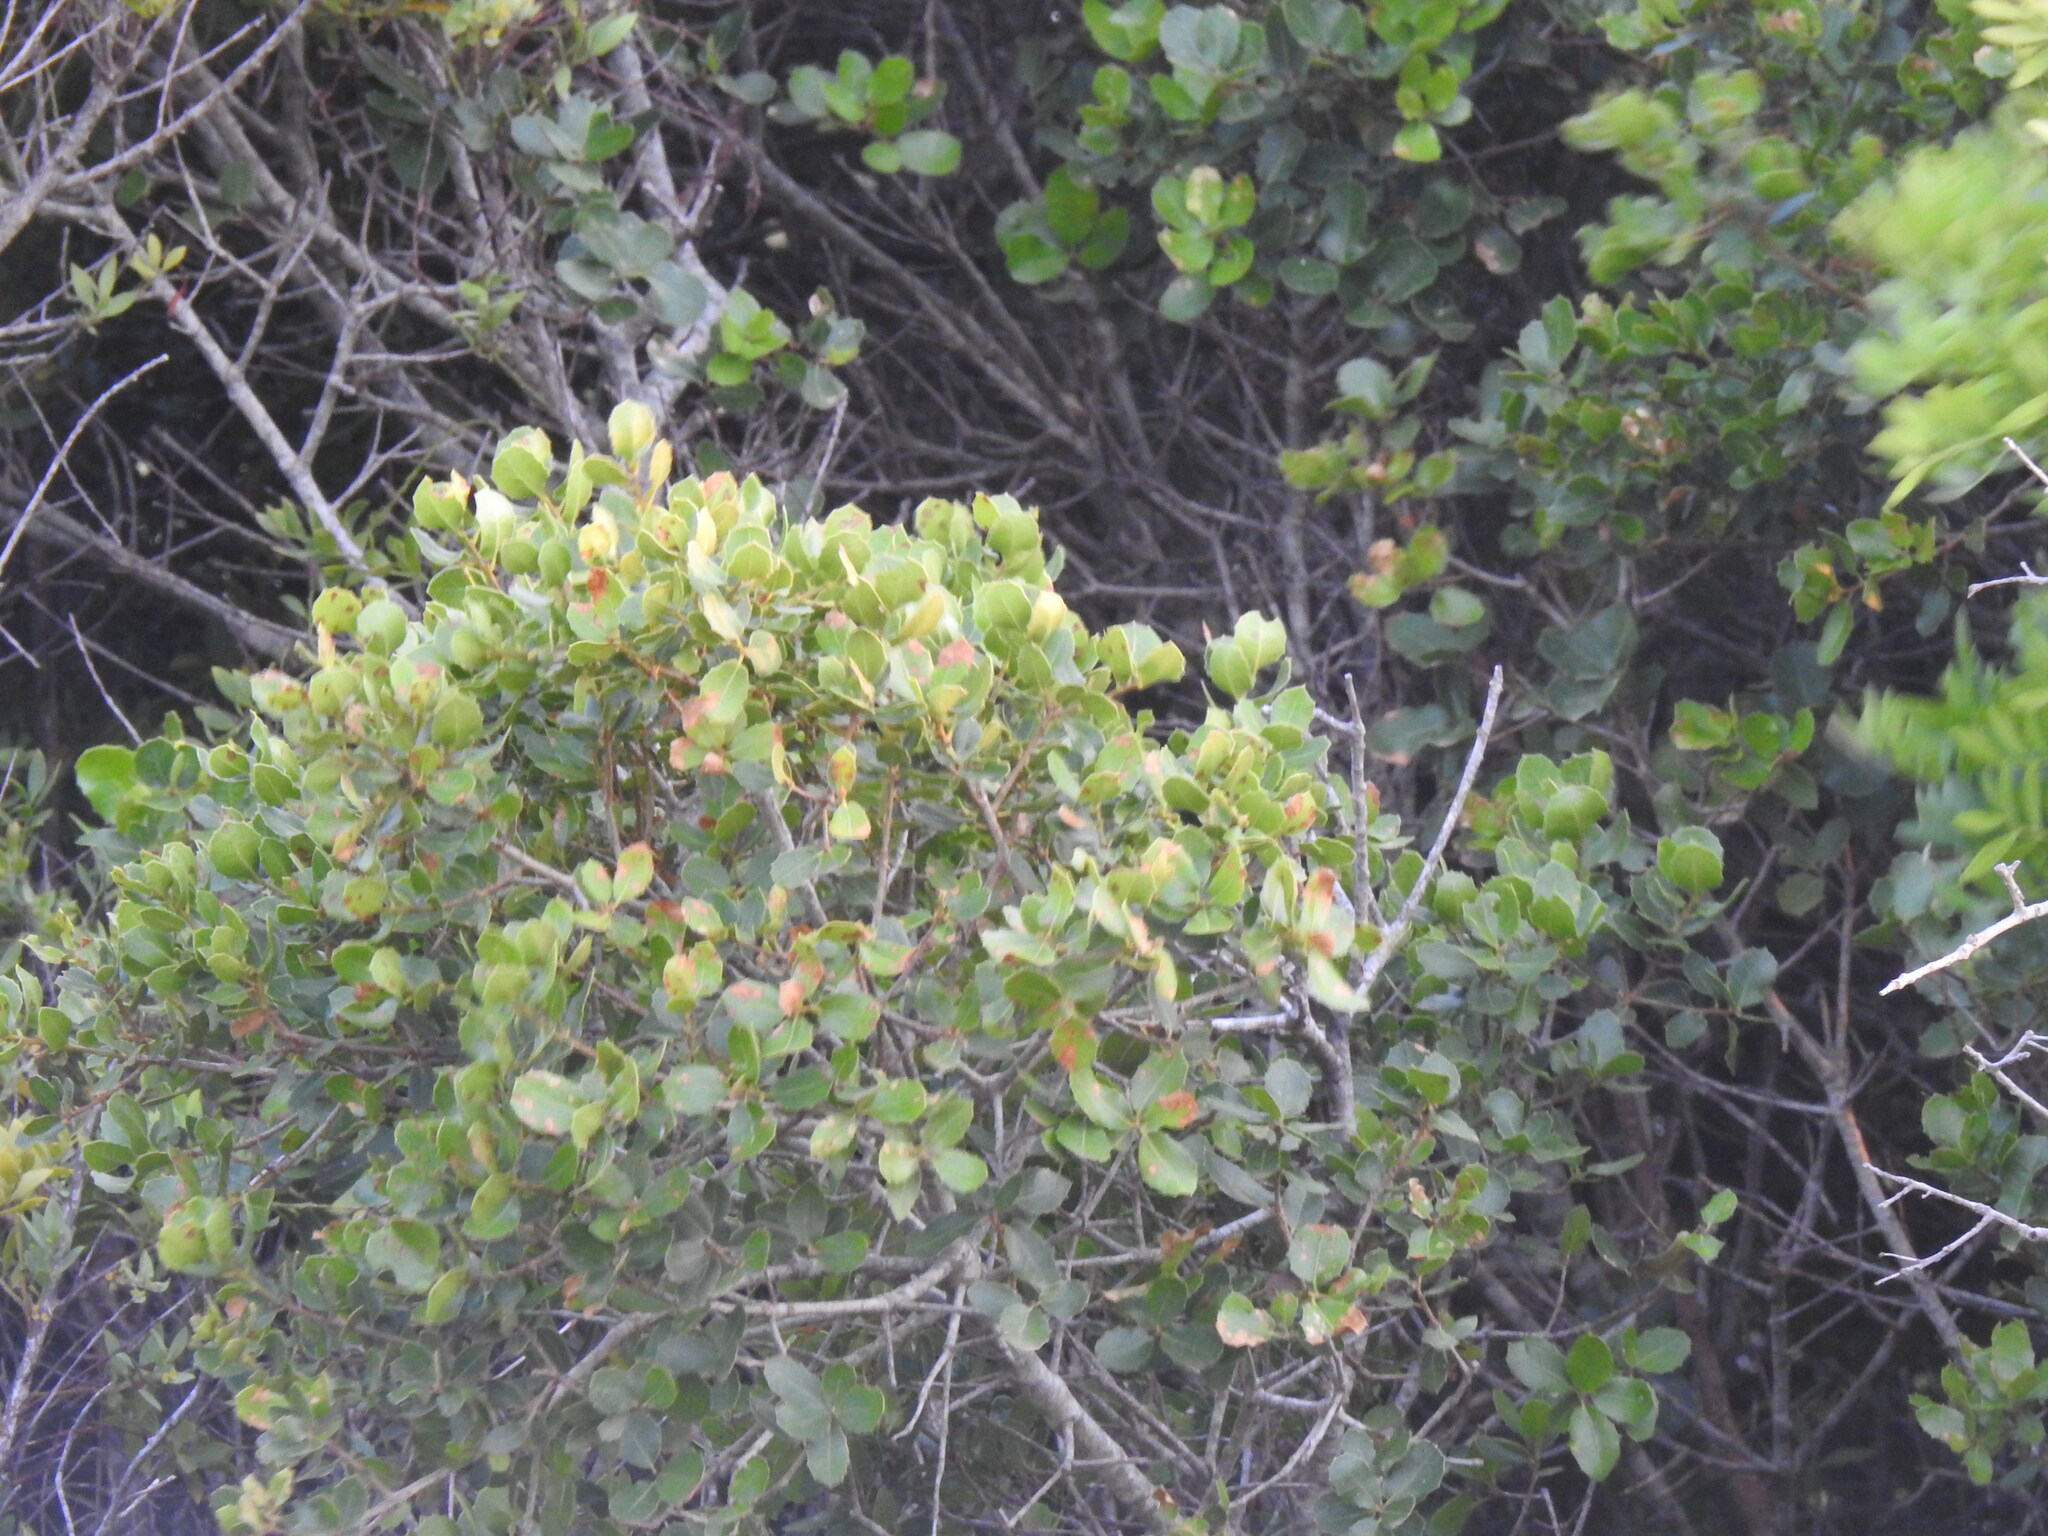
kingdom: Plantae
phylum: Tracheophyta
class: Magnoliopsida
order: Fagales
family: Fagaceae
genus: Quercus
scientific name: Quercus coccifera
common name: Kermes oak
